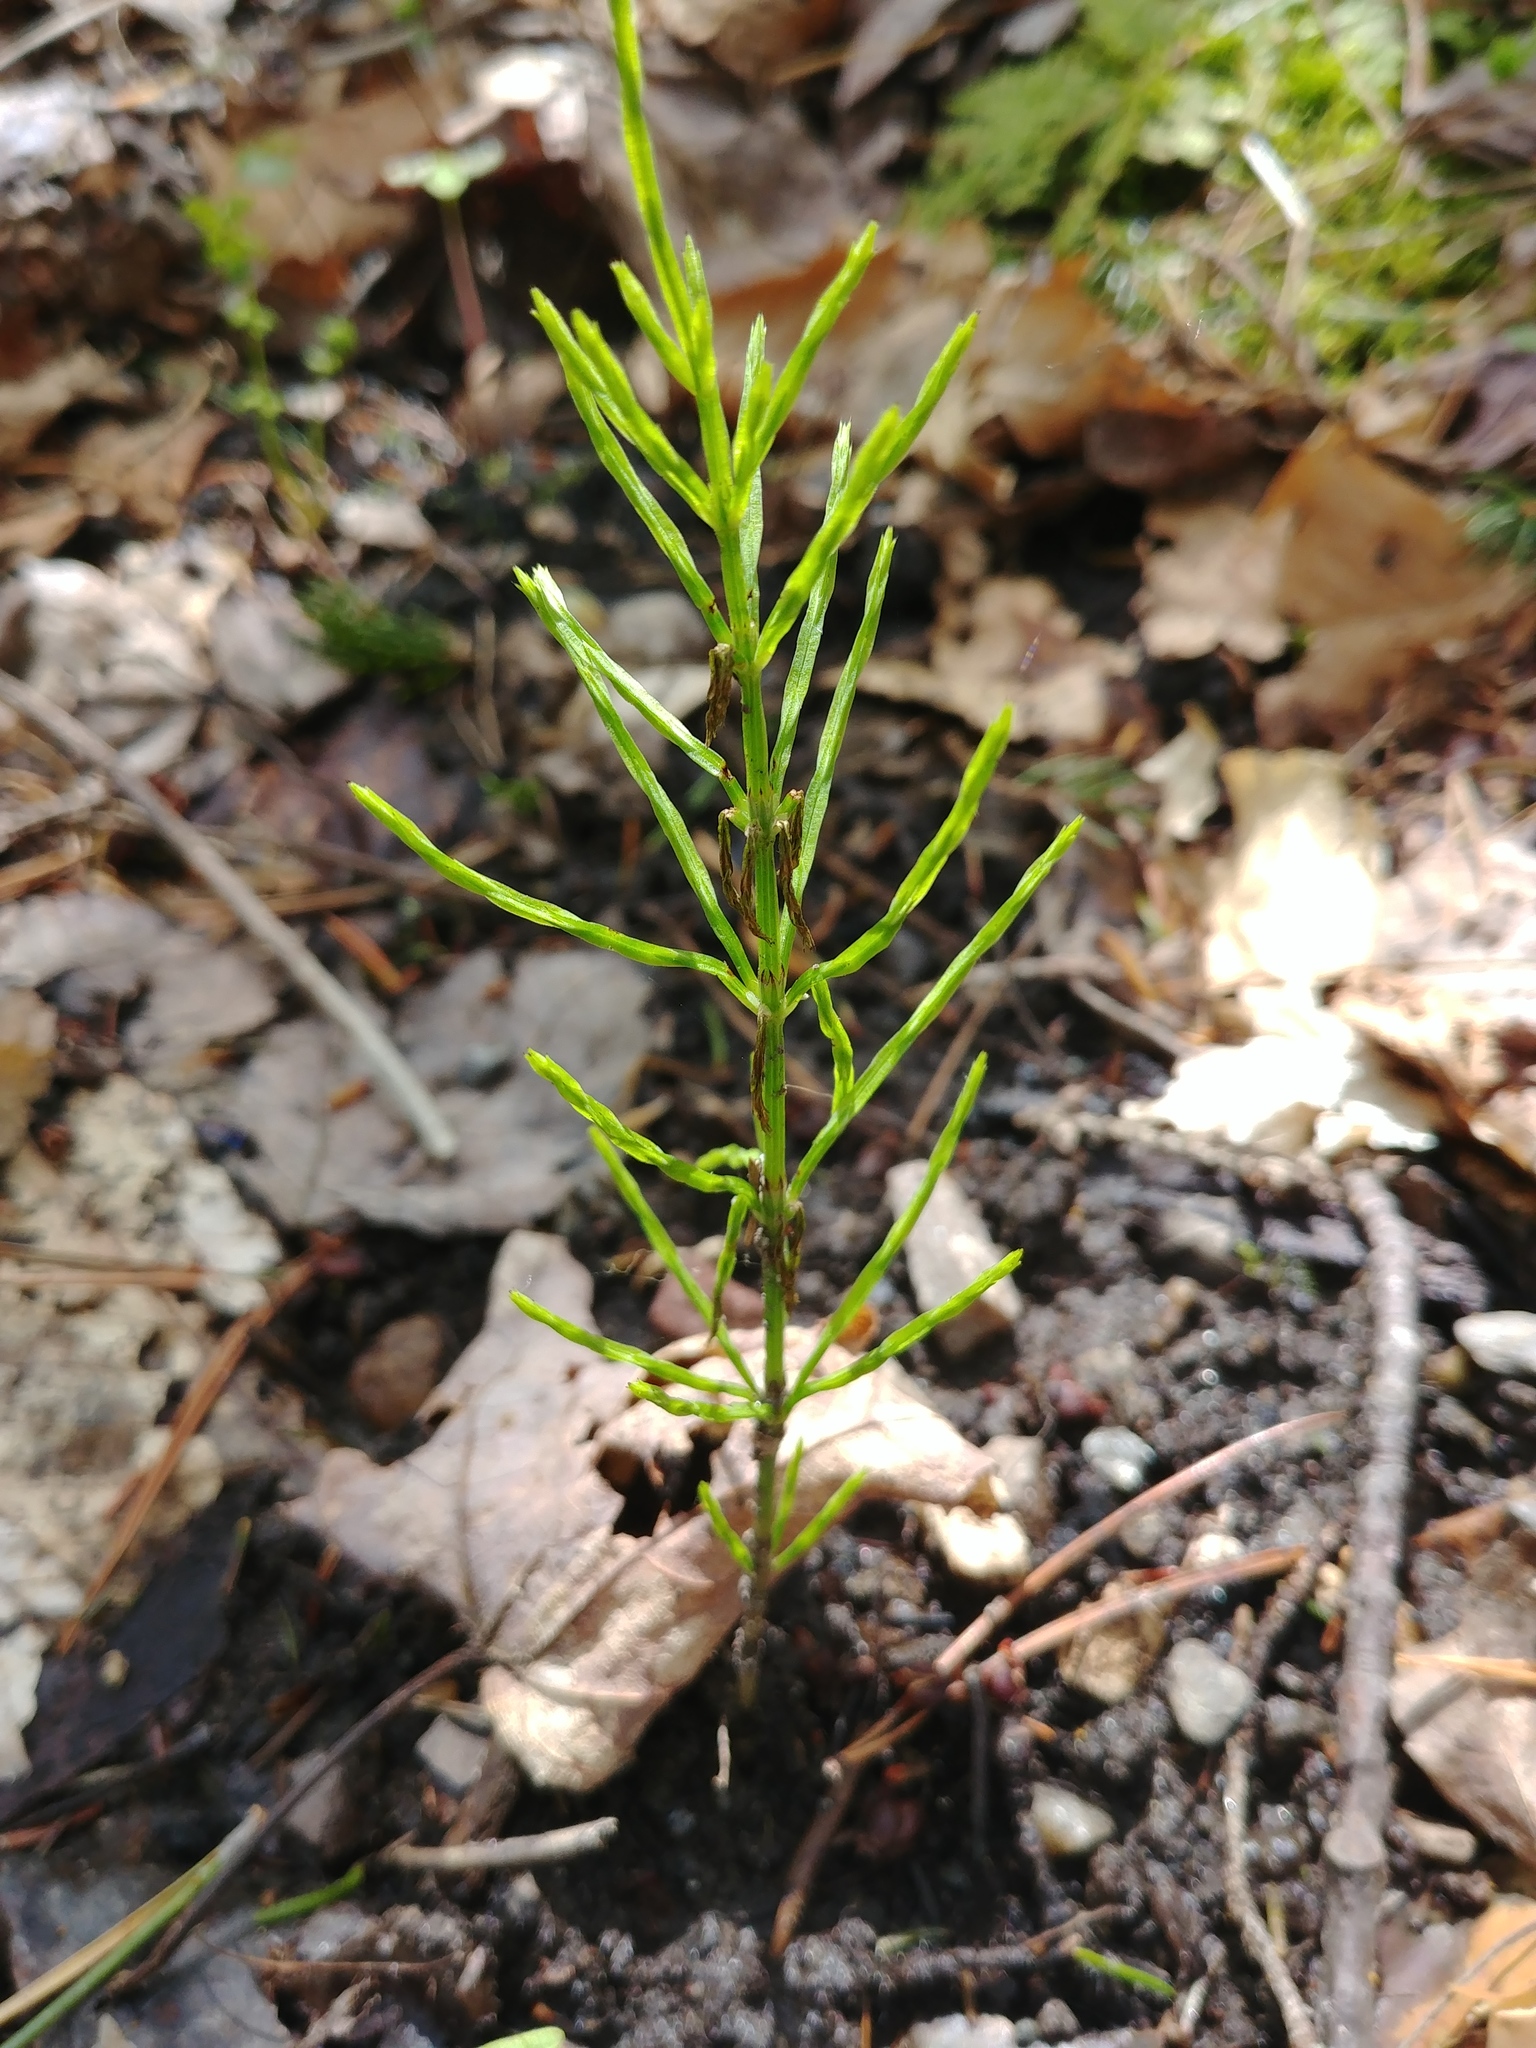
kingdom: Plantae
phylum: Tracheophyta
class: Polypodiopsida
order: Equisetales
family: Equisetaceae
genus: Equisetum
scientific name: Equisetum arvense
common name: Field horsetail
